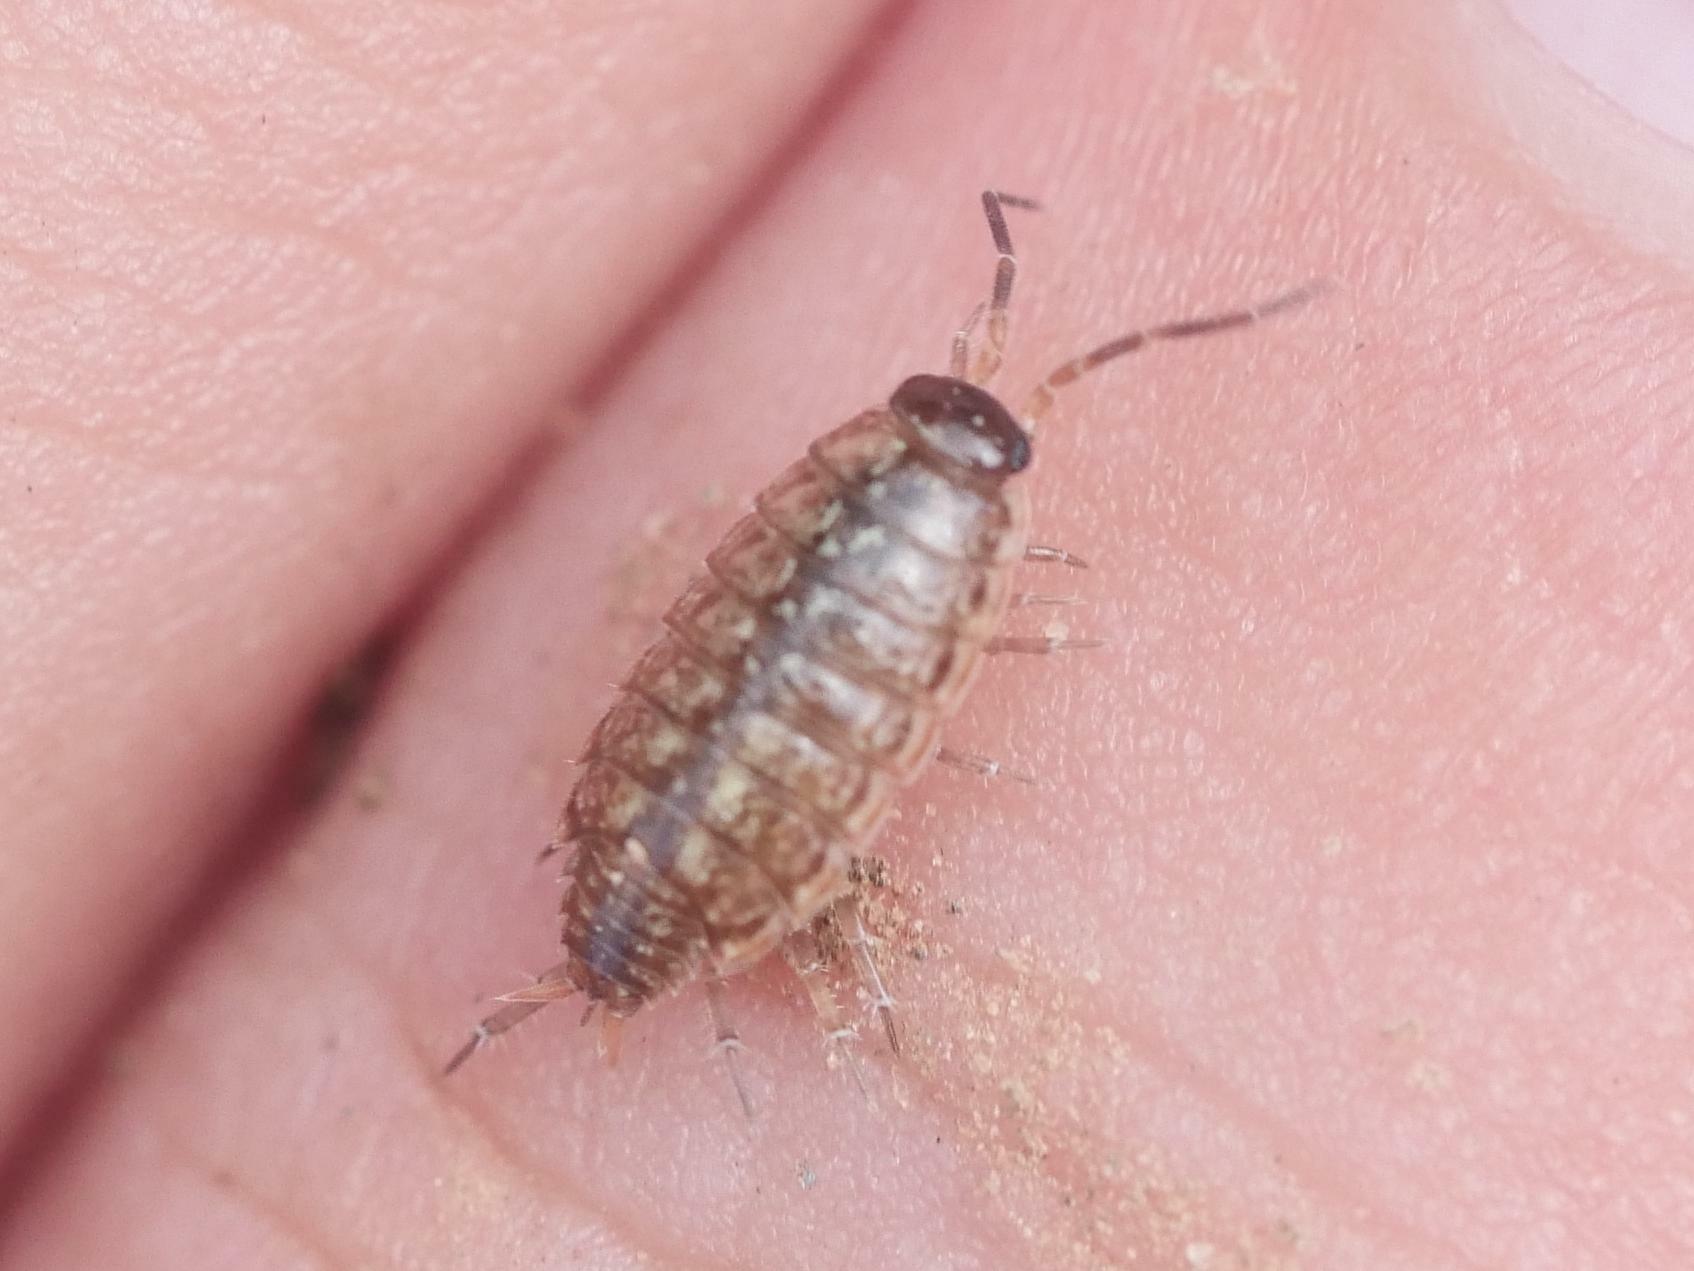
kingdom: Animalia
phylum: Arthropoda
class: Malacostraca
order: Isopoda
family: Philosciidae
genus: Philoscia
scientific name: Philoscia muscorum
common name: Common striped woodlouse
